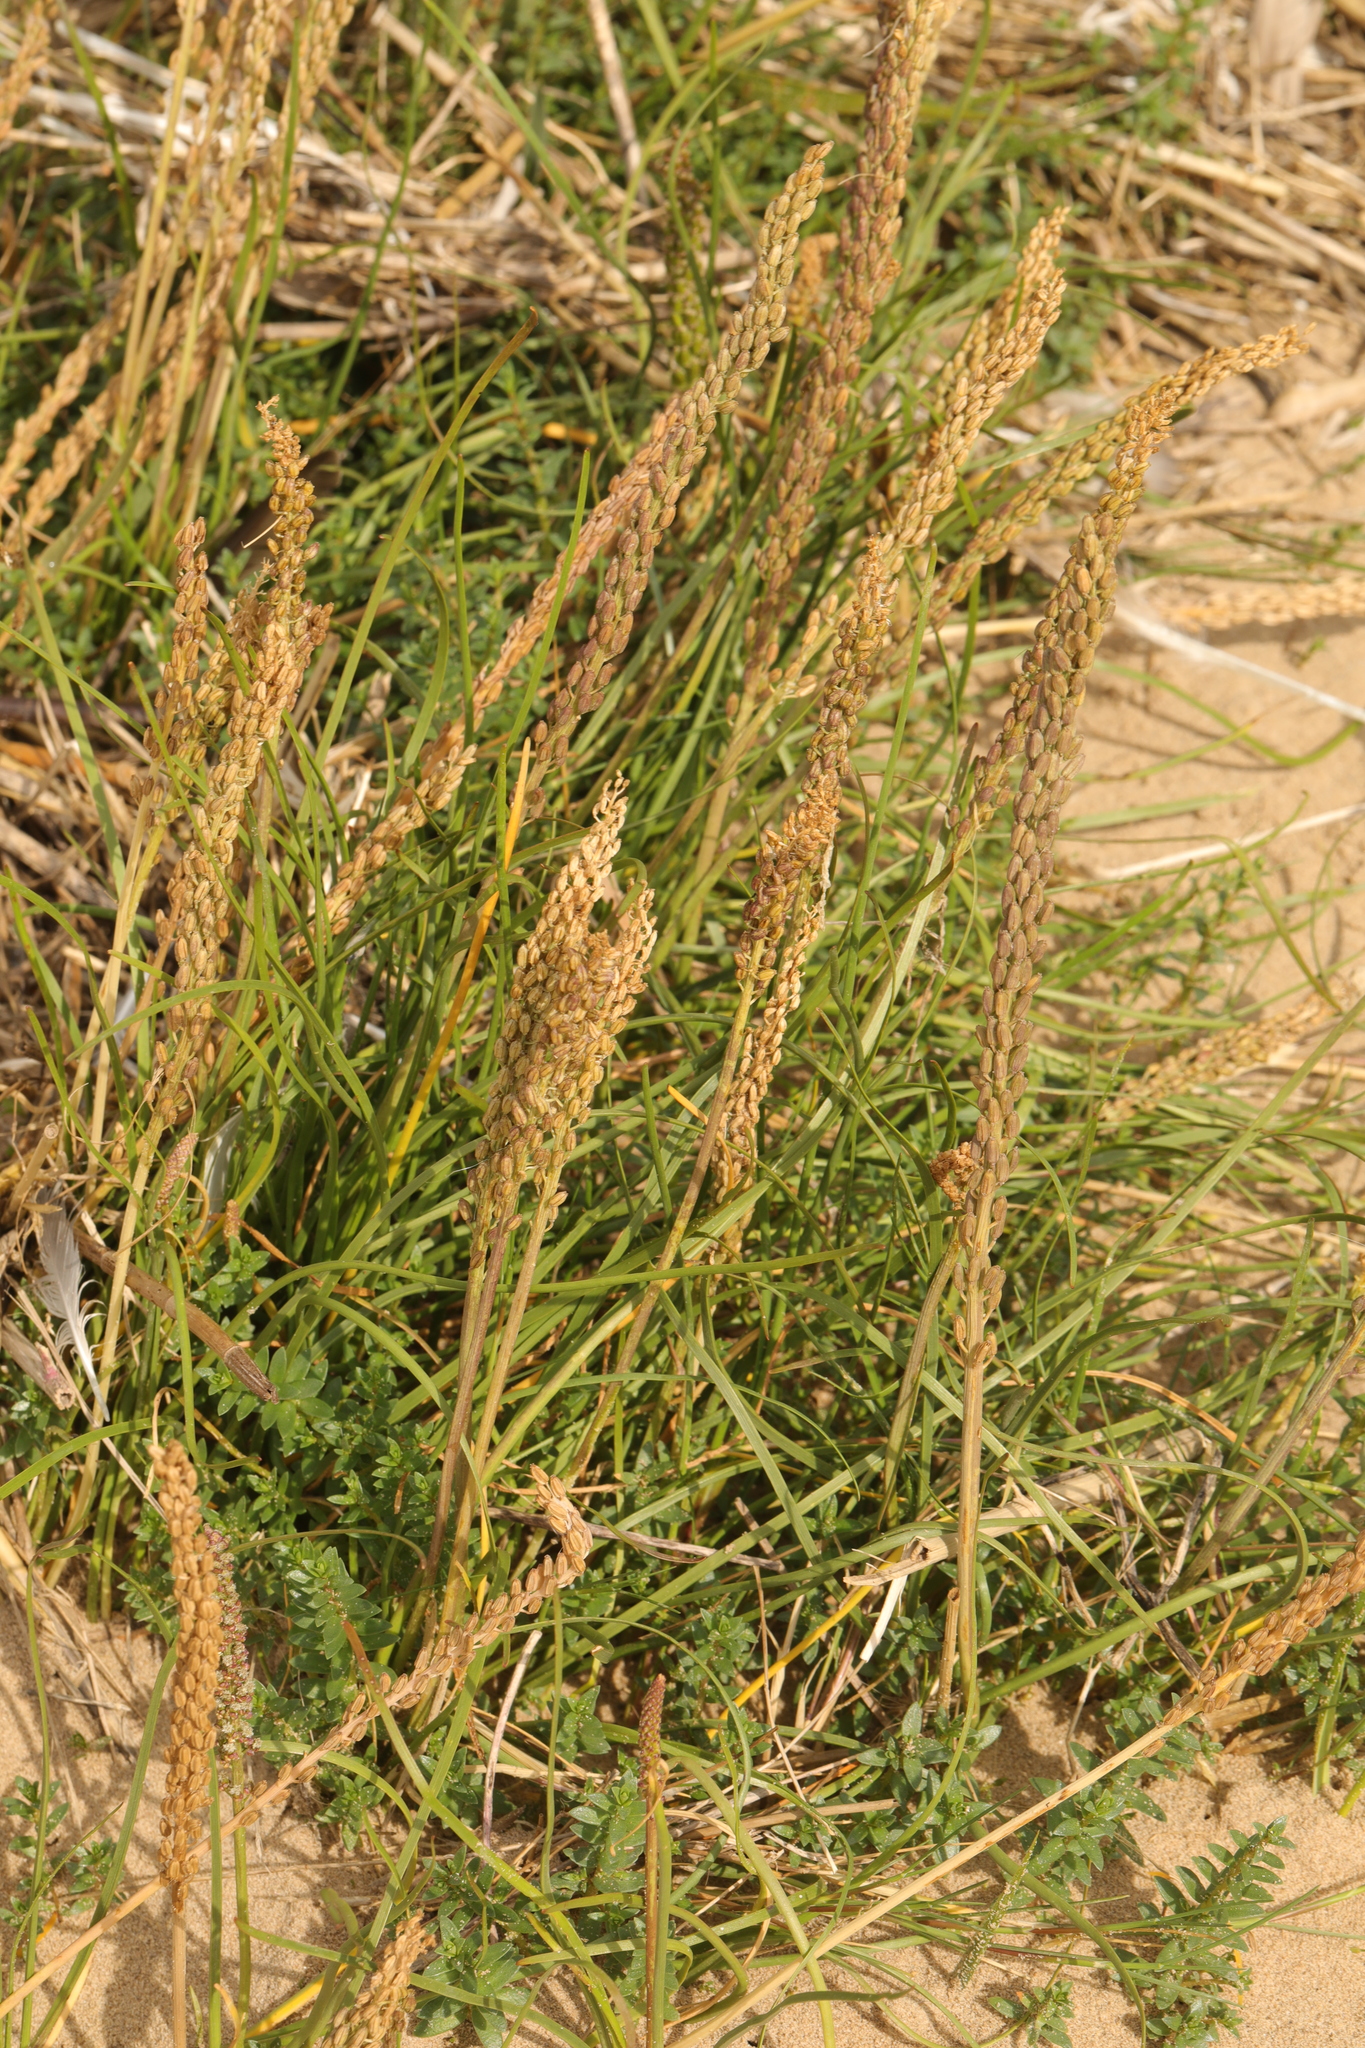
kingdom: Plantae
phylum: Tracheophyta
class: Liliopsida
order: Alismatales
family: Juncaginaceae
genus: Triglochin
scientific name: Triglochin maritima
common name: Sea arrowgrass
